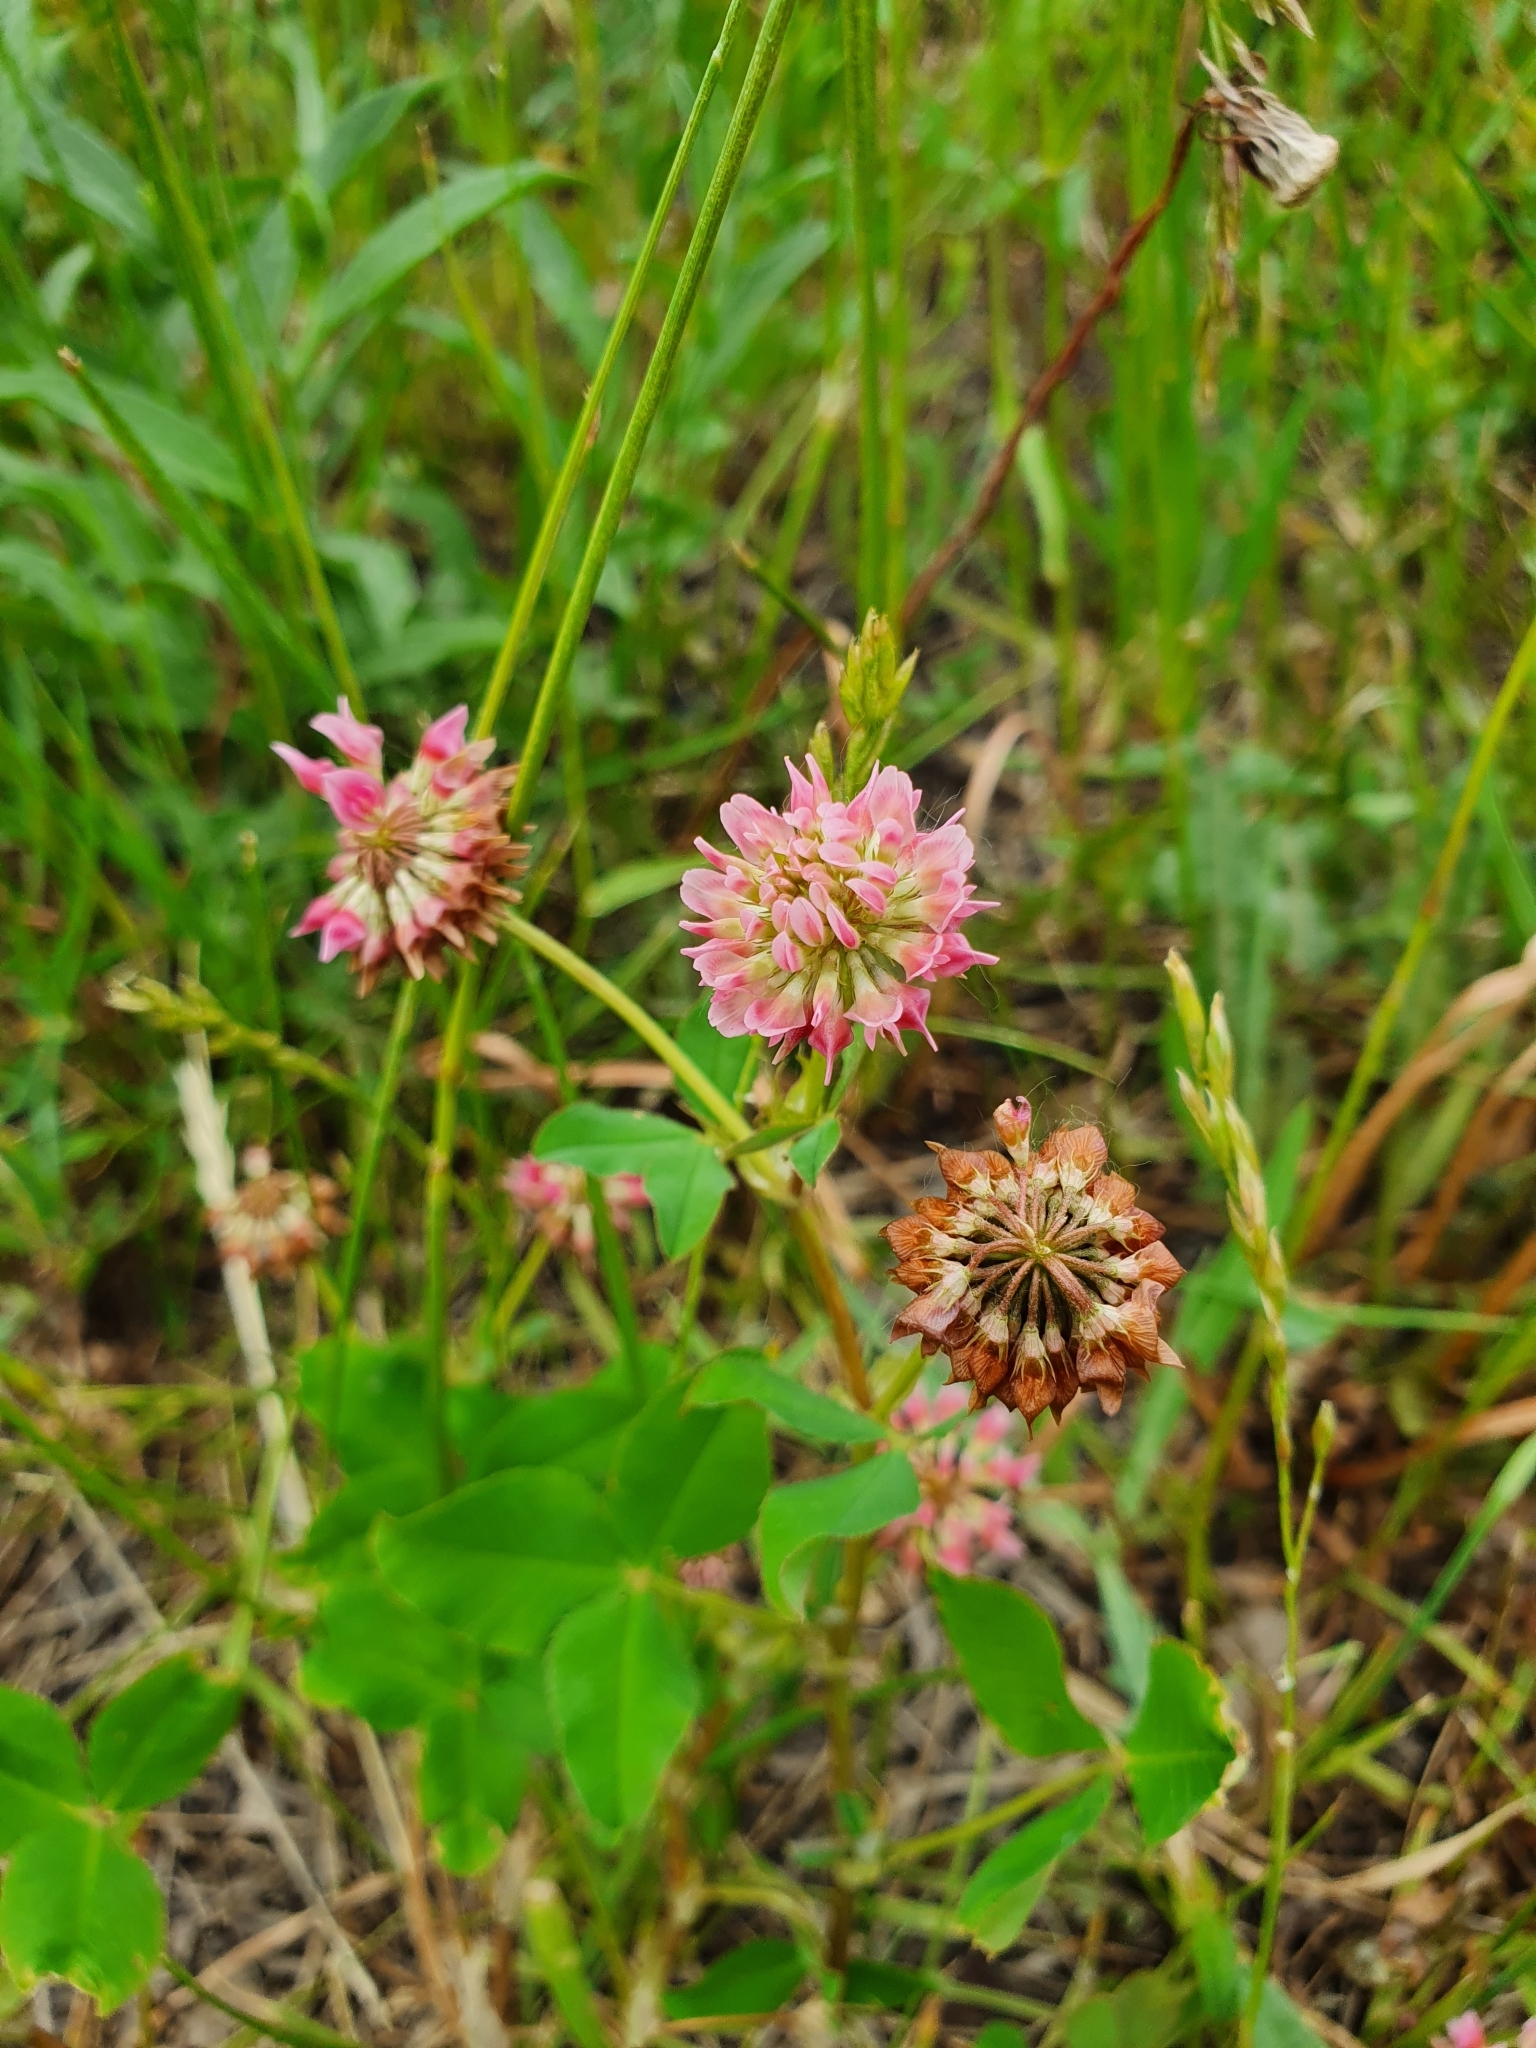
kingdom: Plantae
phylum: Tracheophyta
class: Magnoliopsida
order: Fabales
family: Fabaceae
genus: Trifolium
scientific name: Trifolium hybridum
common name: Alsike clover
